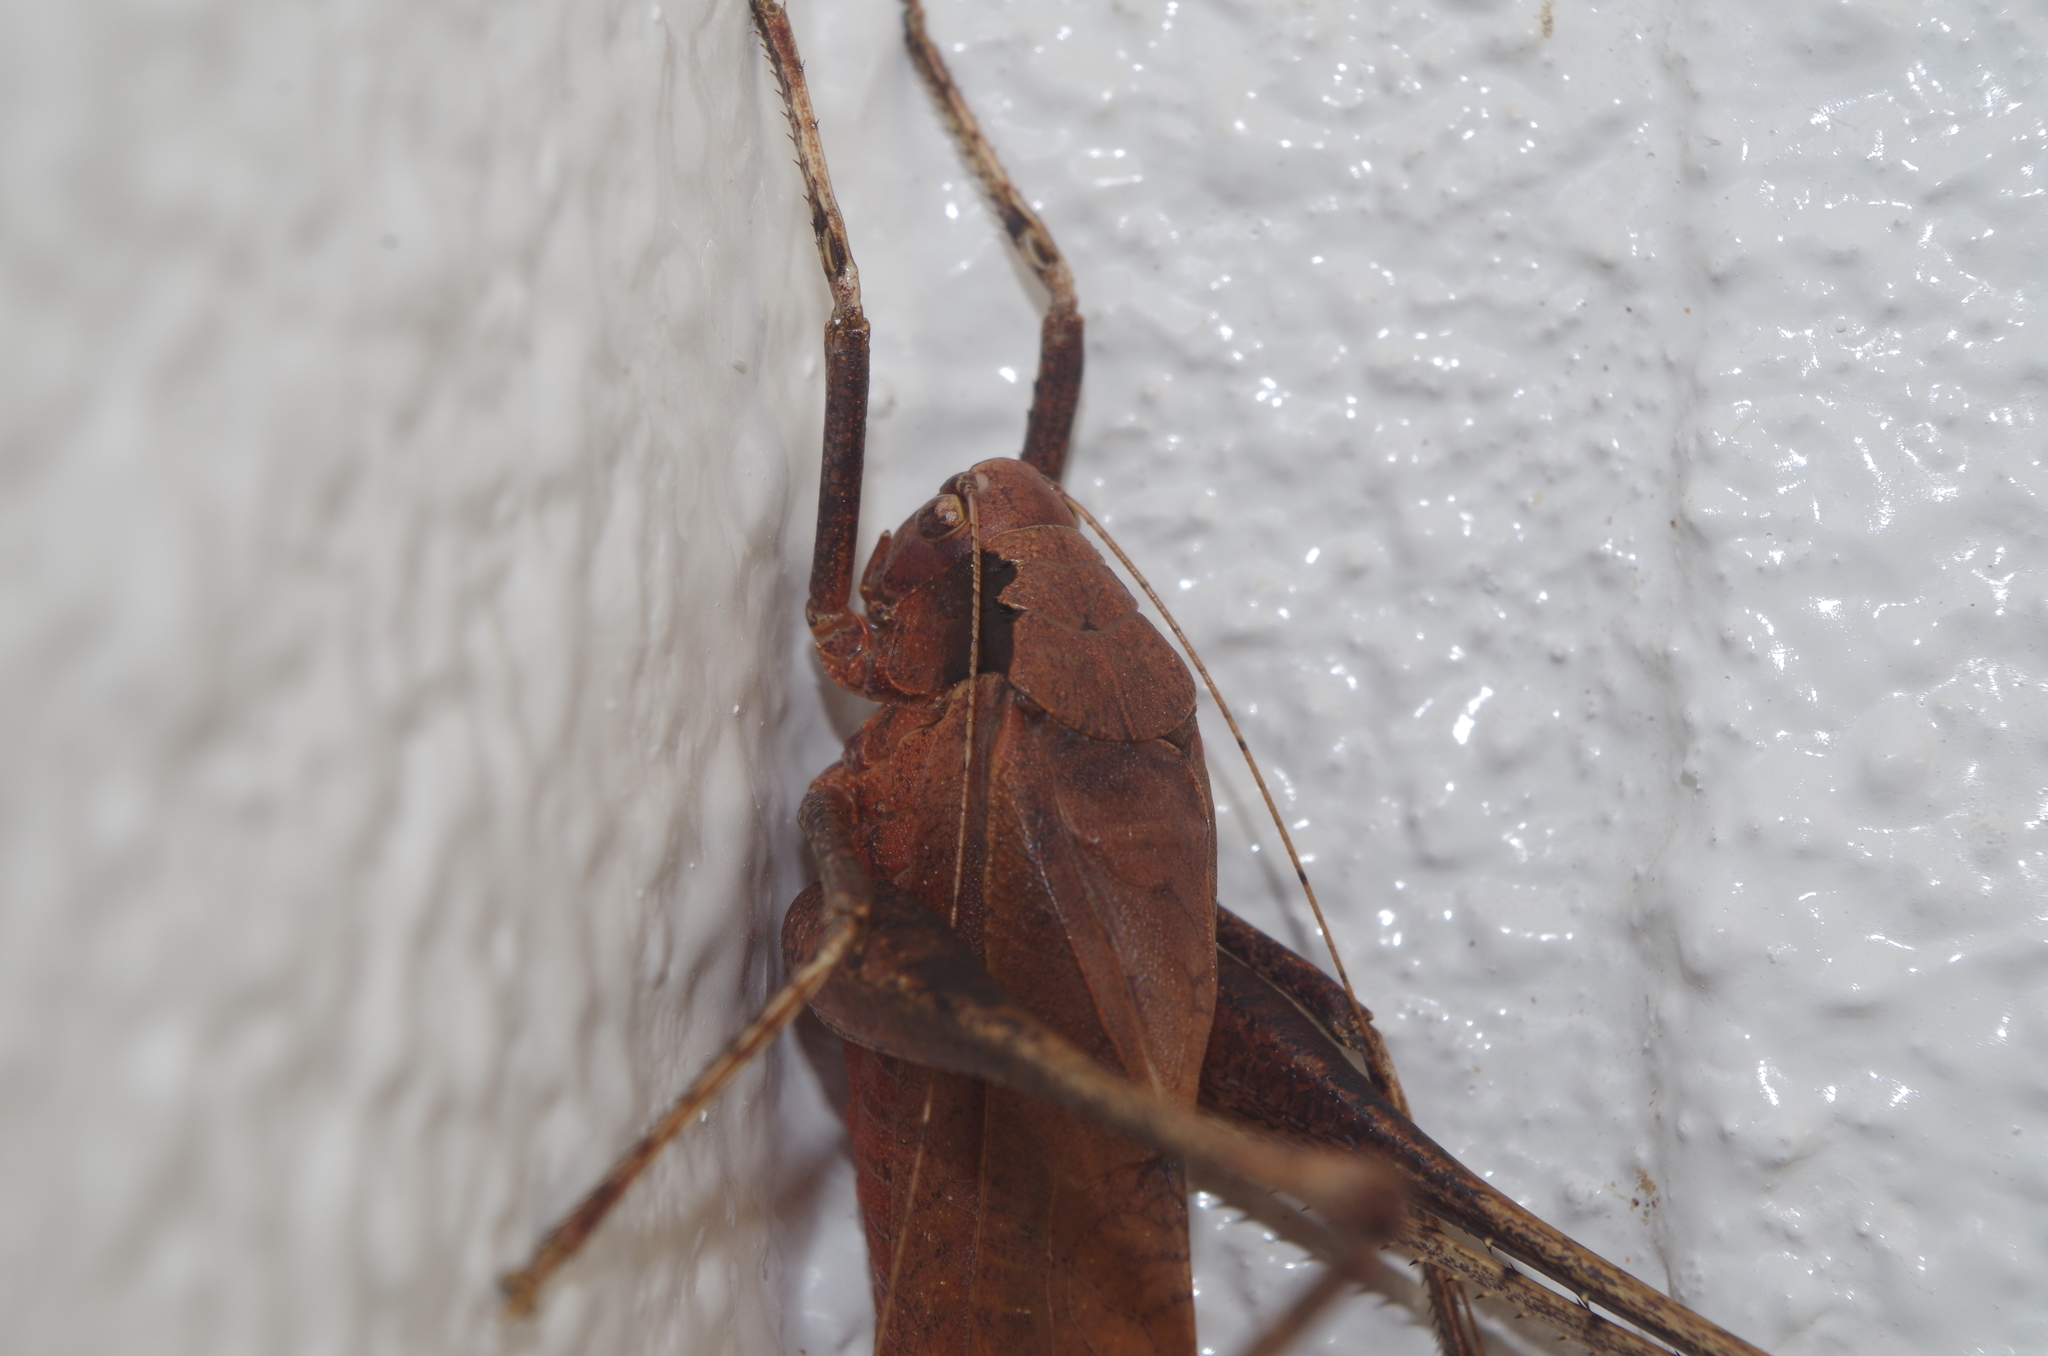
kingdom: Animalia
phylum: Arthropoda
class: Insecta
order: Orthoptera
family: Tettigoniidae
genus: Mecopoda
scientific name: Mecopoda elongata
